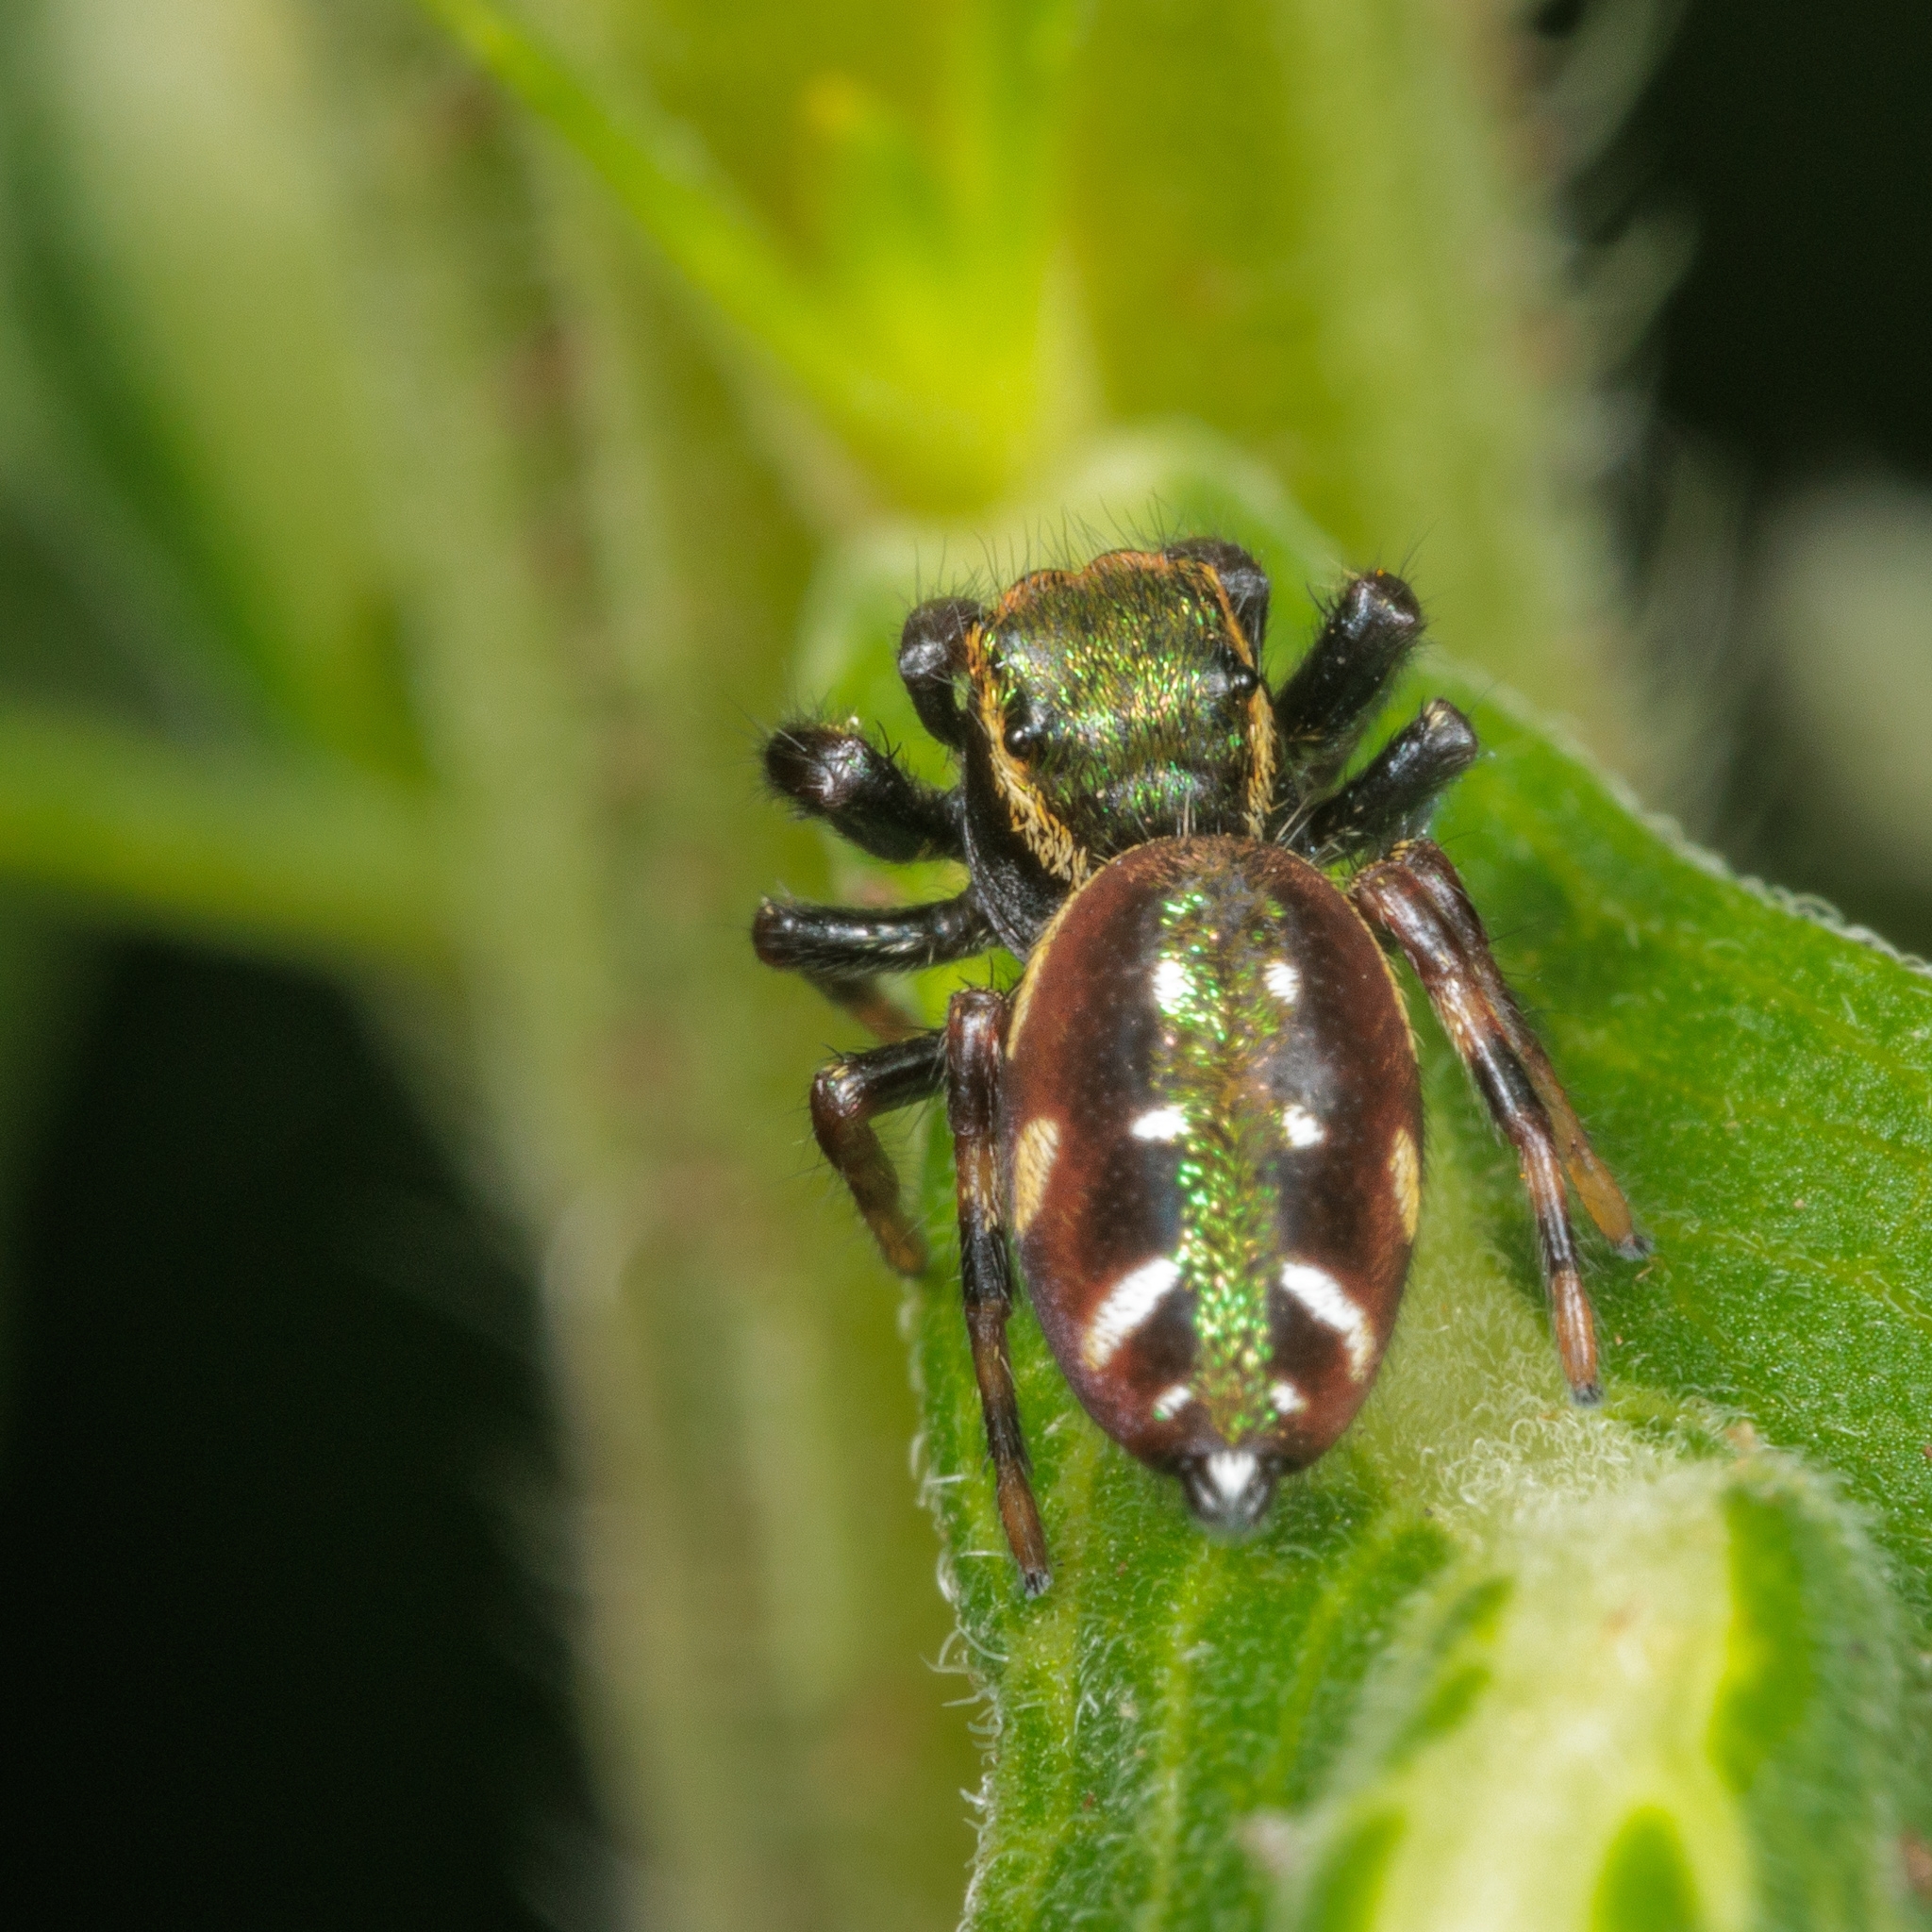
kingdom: Animalia
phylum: Arthropoda
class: Arachnida
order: Araneae
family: Salticidae
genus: Paraphidippus
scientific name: Paraphidippus aurantius
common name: Jumping spiders
